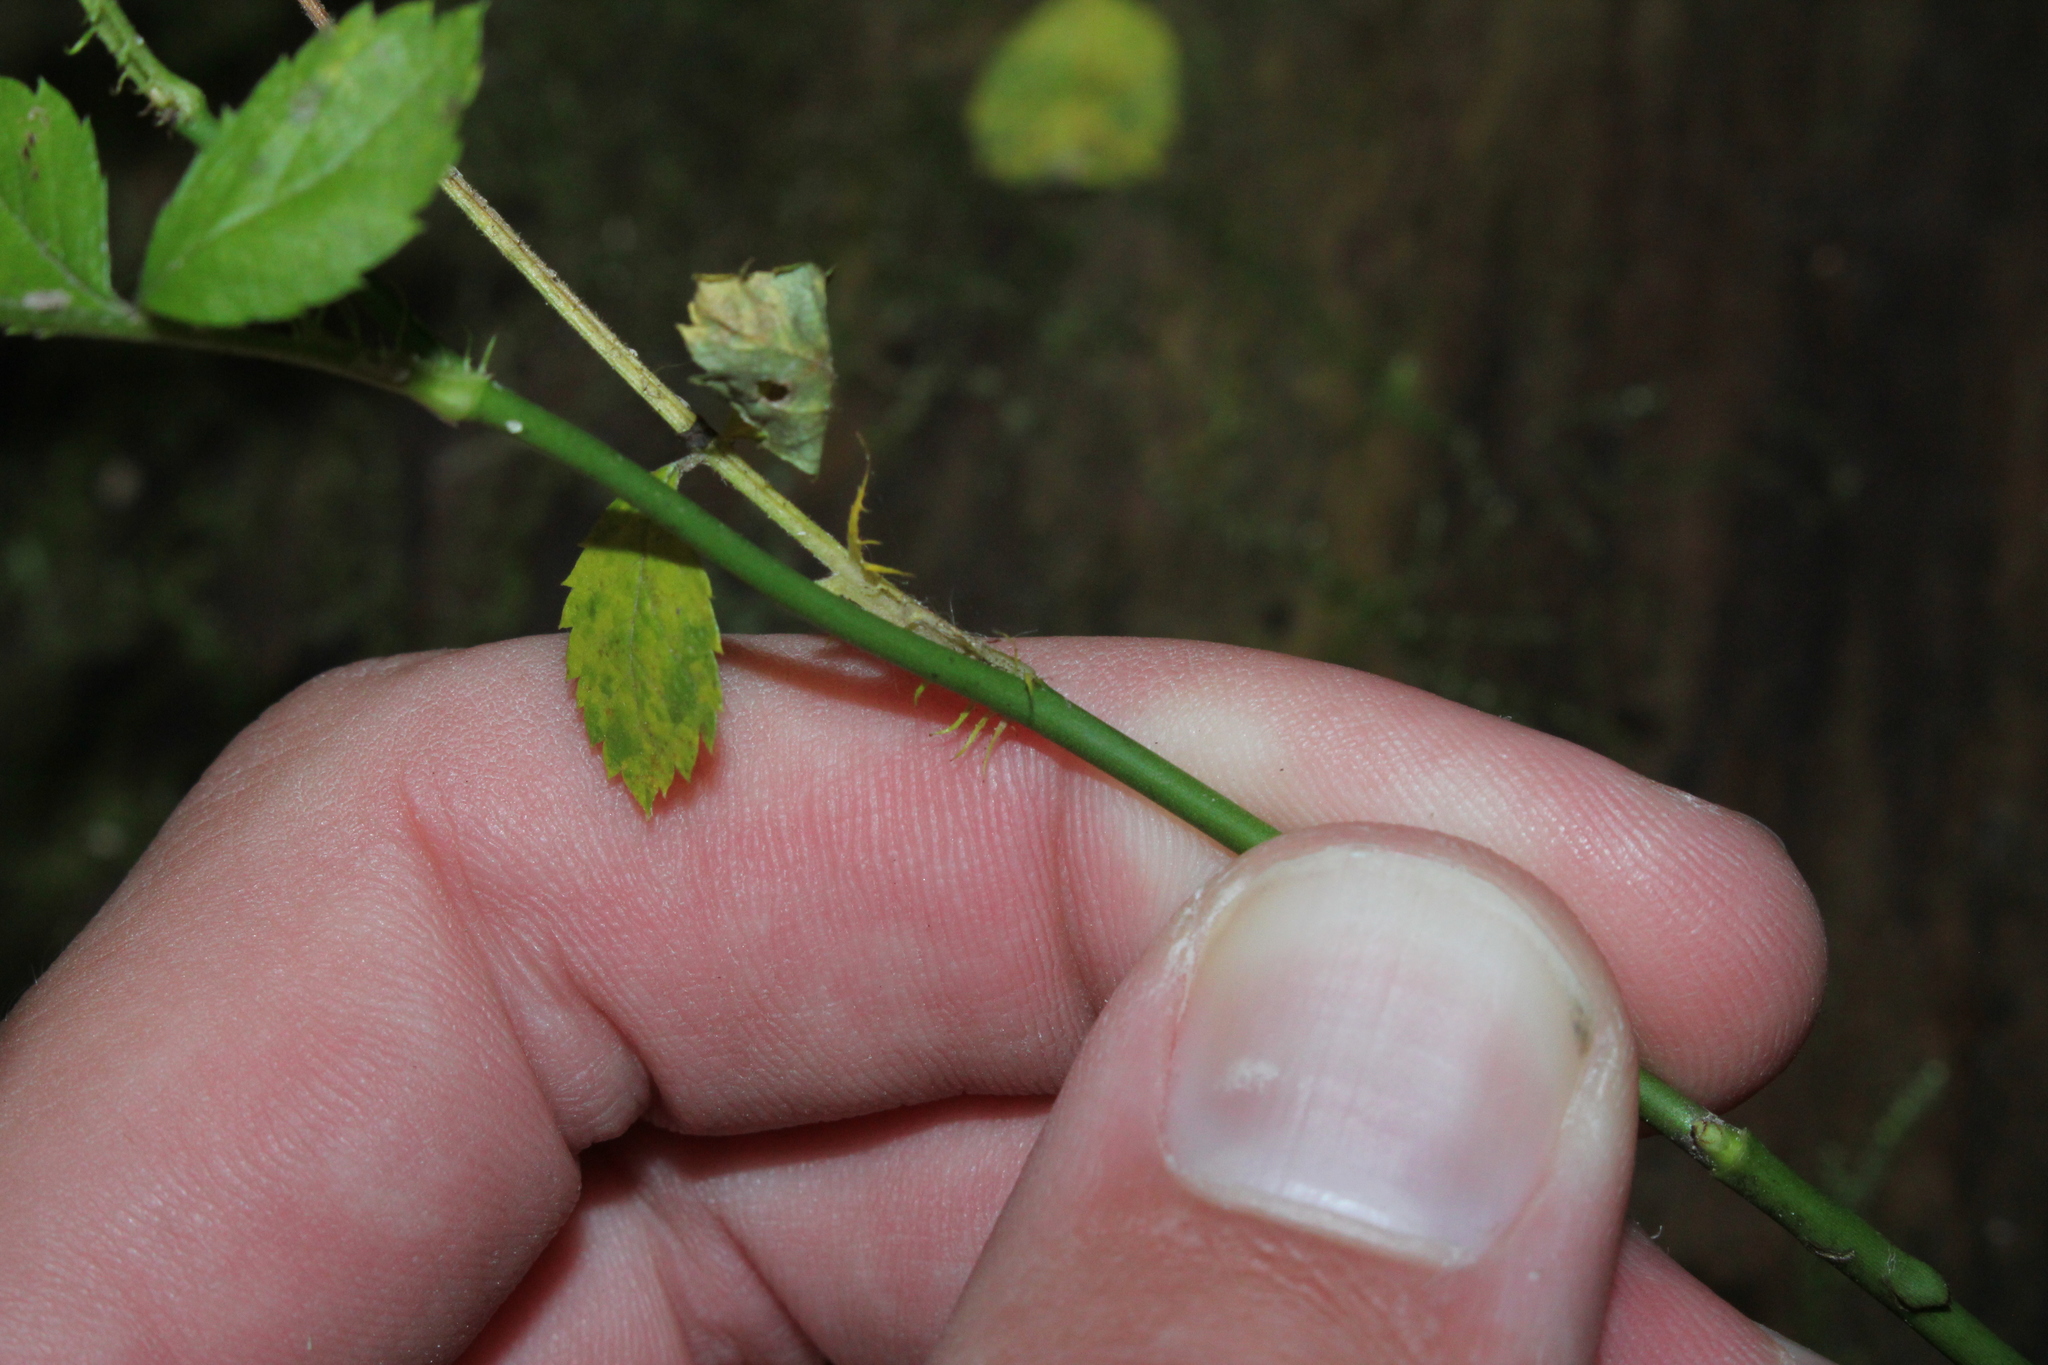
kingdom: Plantae
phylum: Tracheophyta
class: Magnoliopsida
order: Rosales
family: Rosaceae
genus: Rosa
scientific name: Rosa multiflora
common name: Multiflora rose
